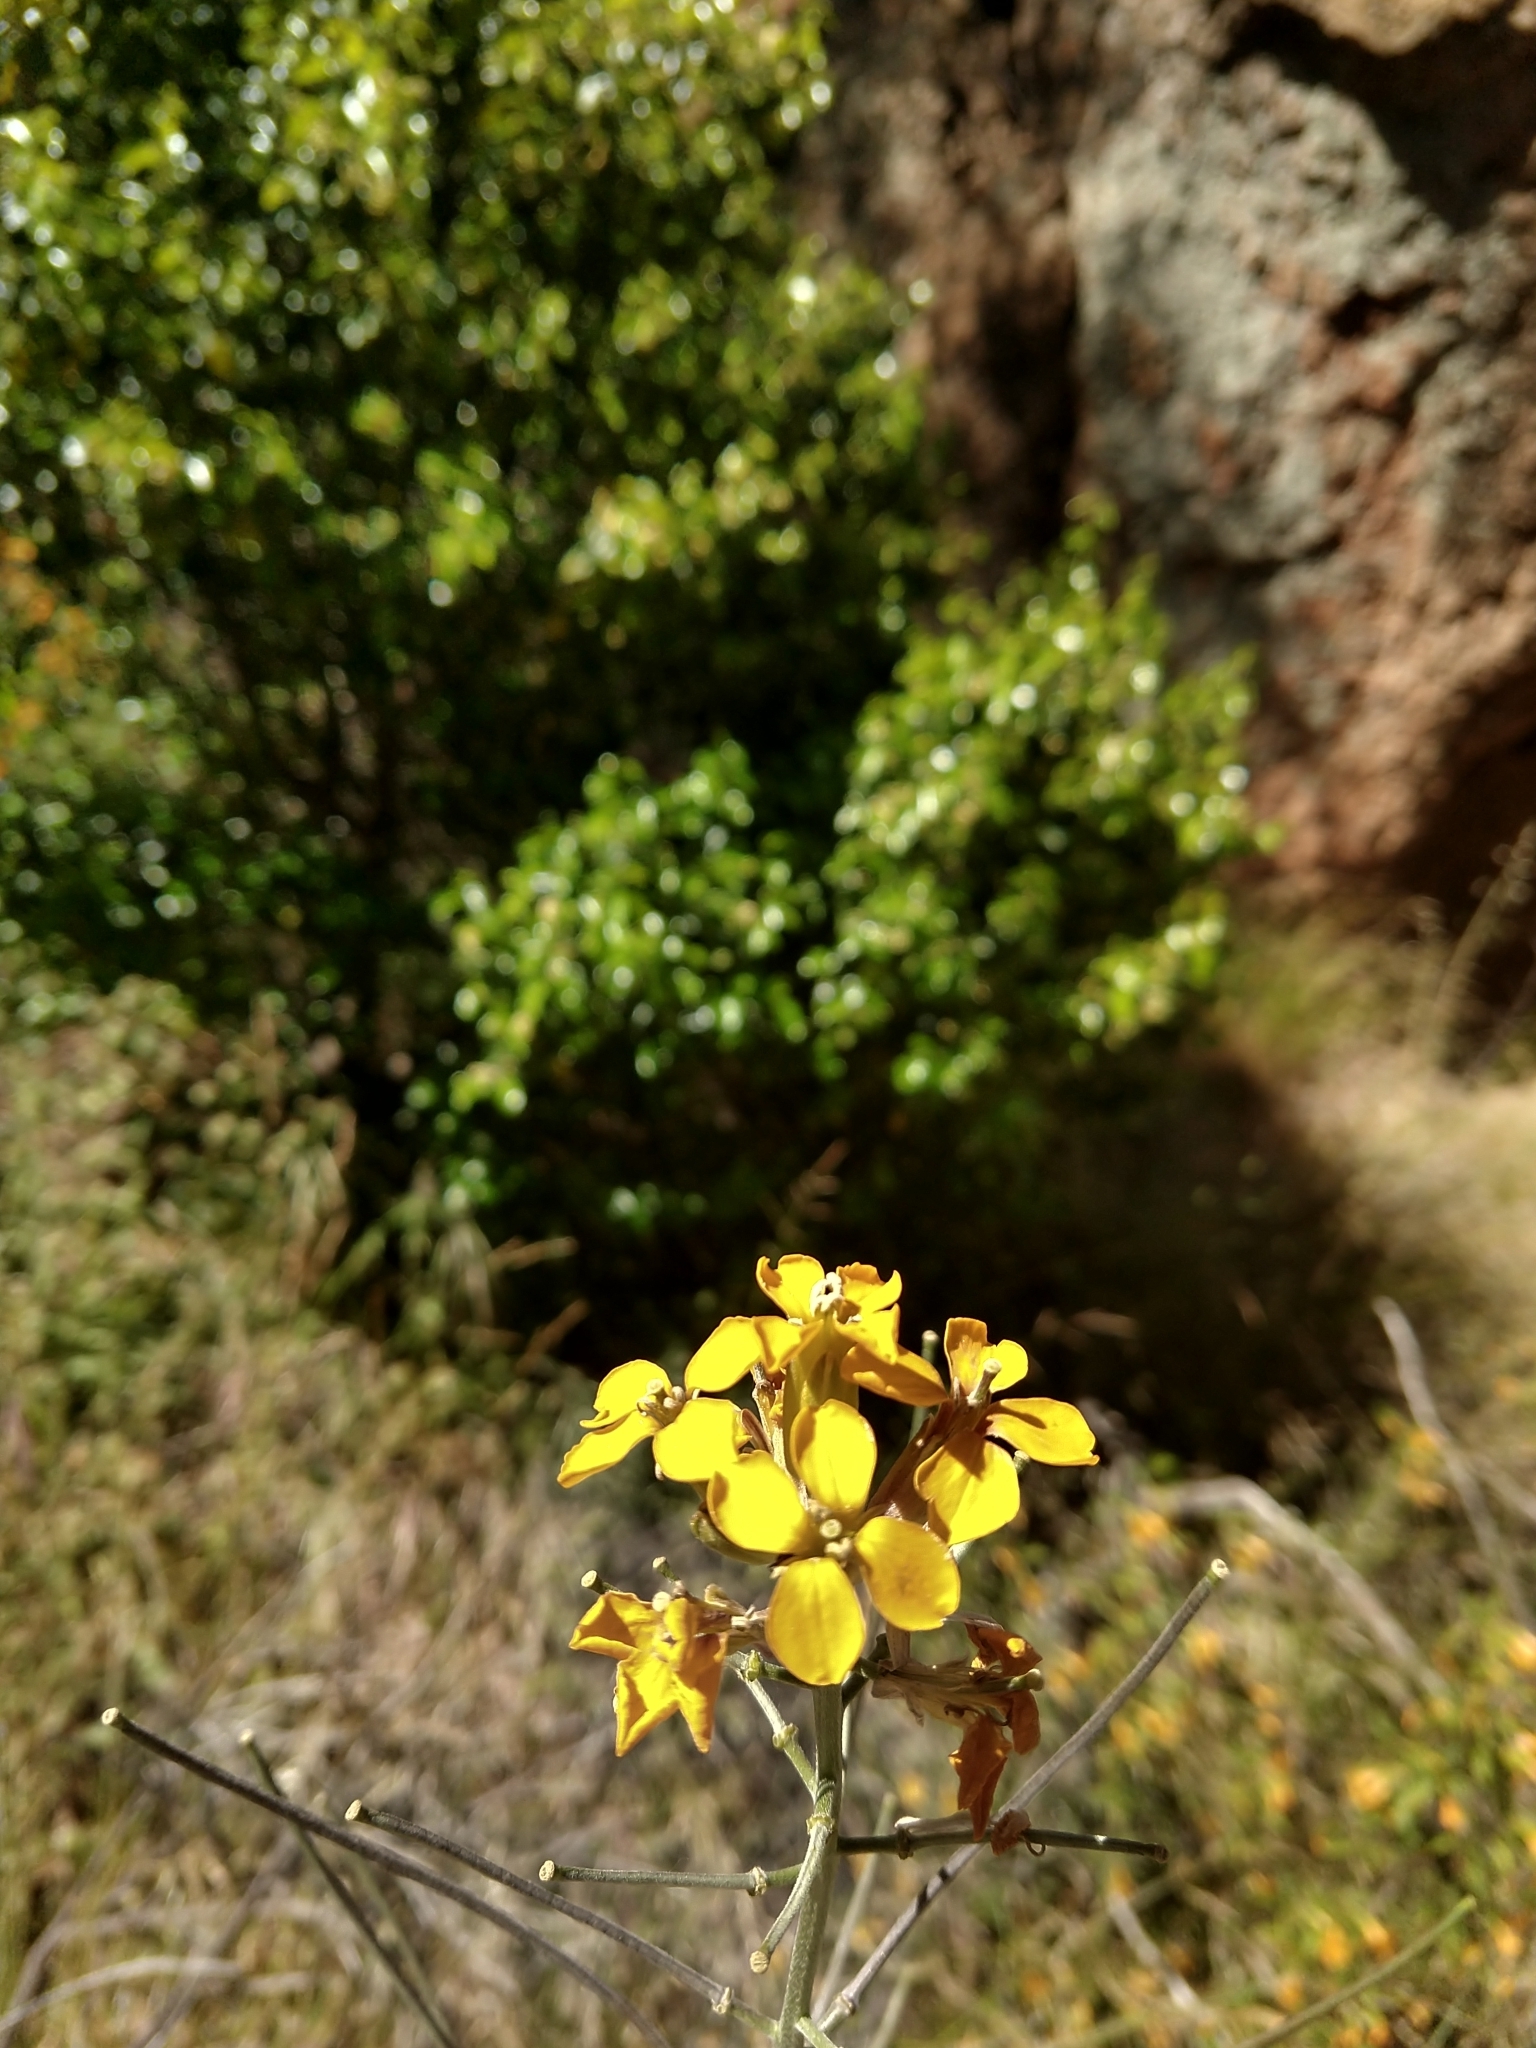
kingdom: Plantae
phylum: Tracheophyta
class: Magnoliopsida
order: Brassicales
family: Brassicaceae
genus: Erysimum
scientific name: Erysimum capitatum
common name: Western wallflower
